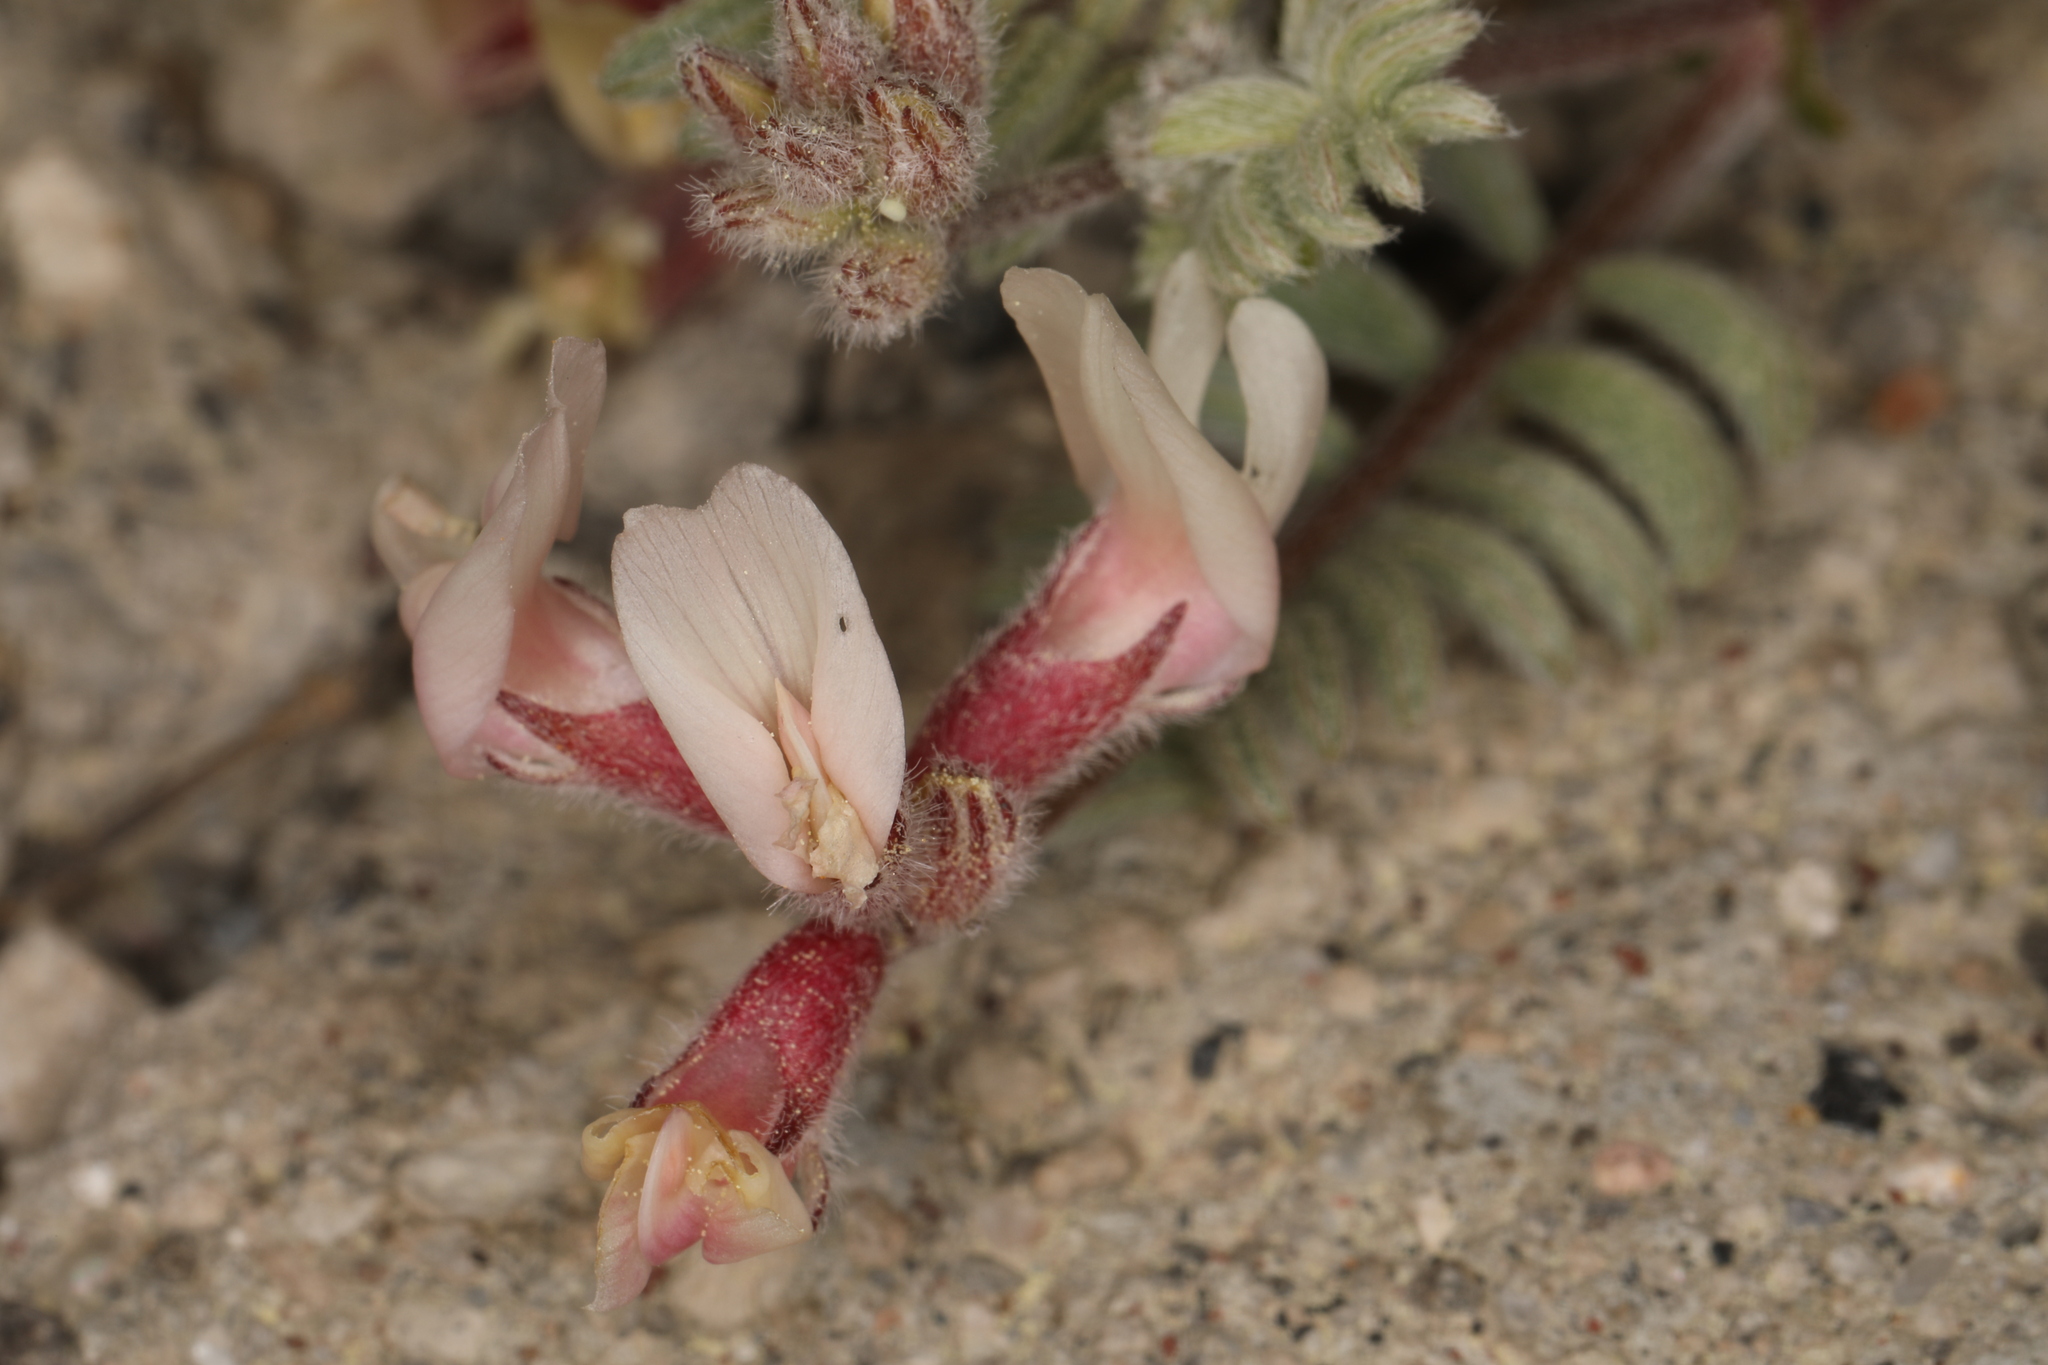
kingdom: Plantae
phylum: Tracheophyta
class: Magnoliopsida
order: Fabales
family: Fabaceae
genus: Astragalus
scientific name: Astragalus monoensis
